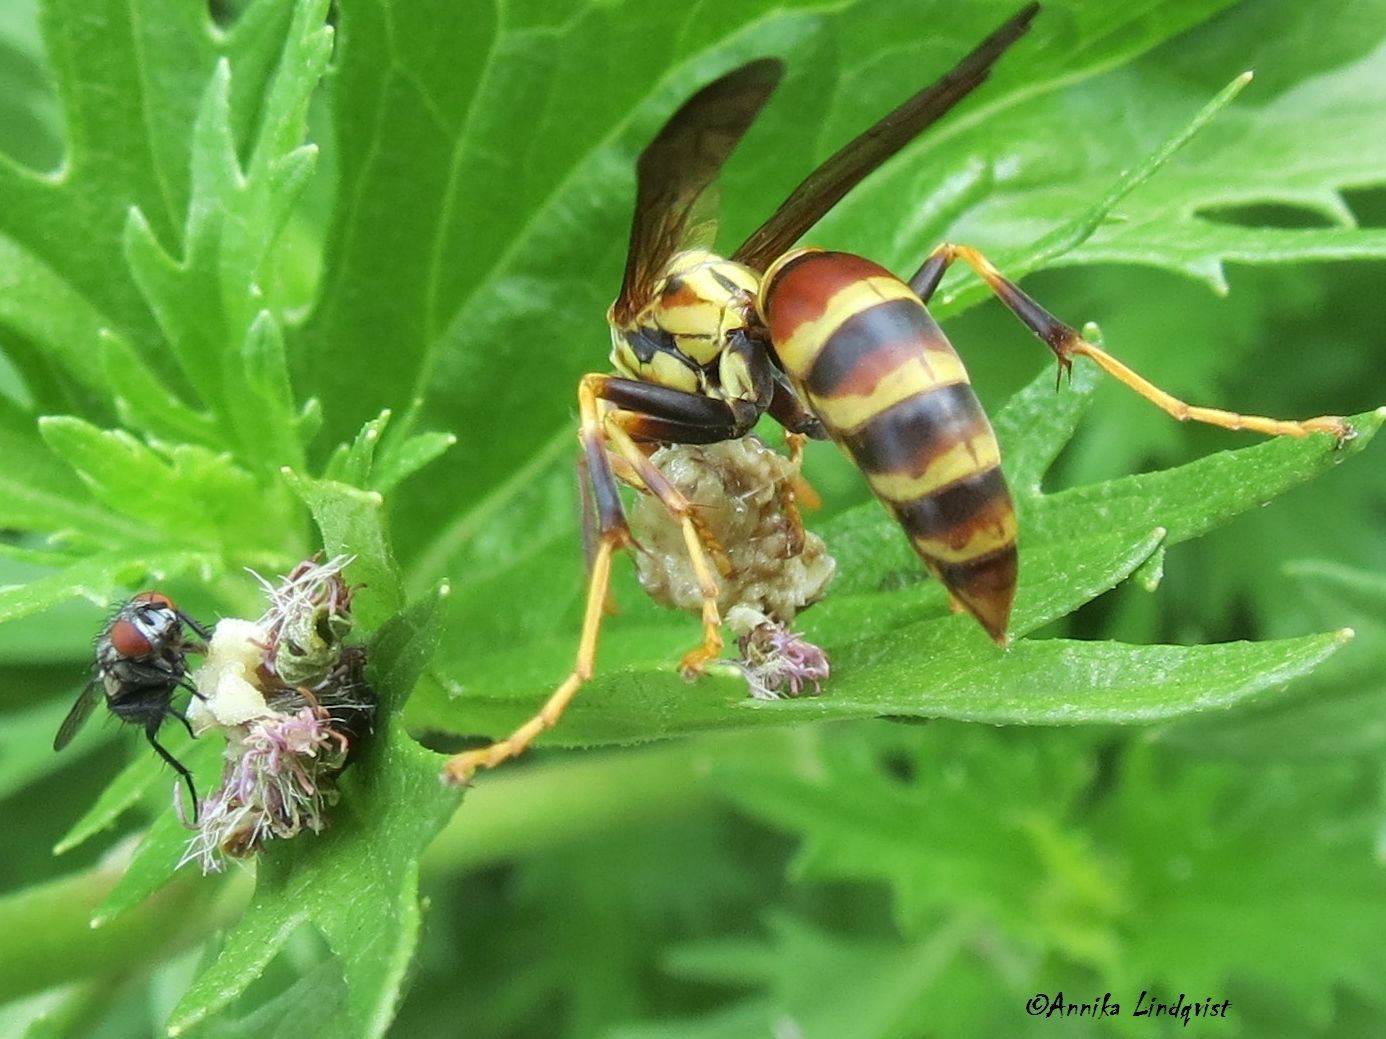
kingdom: Animalia
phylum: Arthropoda
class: Insecta
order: Hymenoptera
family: Eumenidae
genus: Polistes
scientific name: Polistes exclamans
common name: Paper wasp
